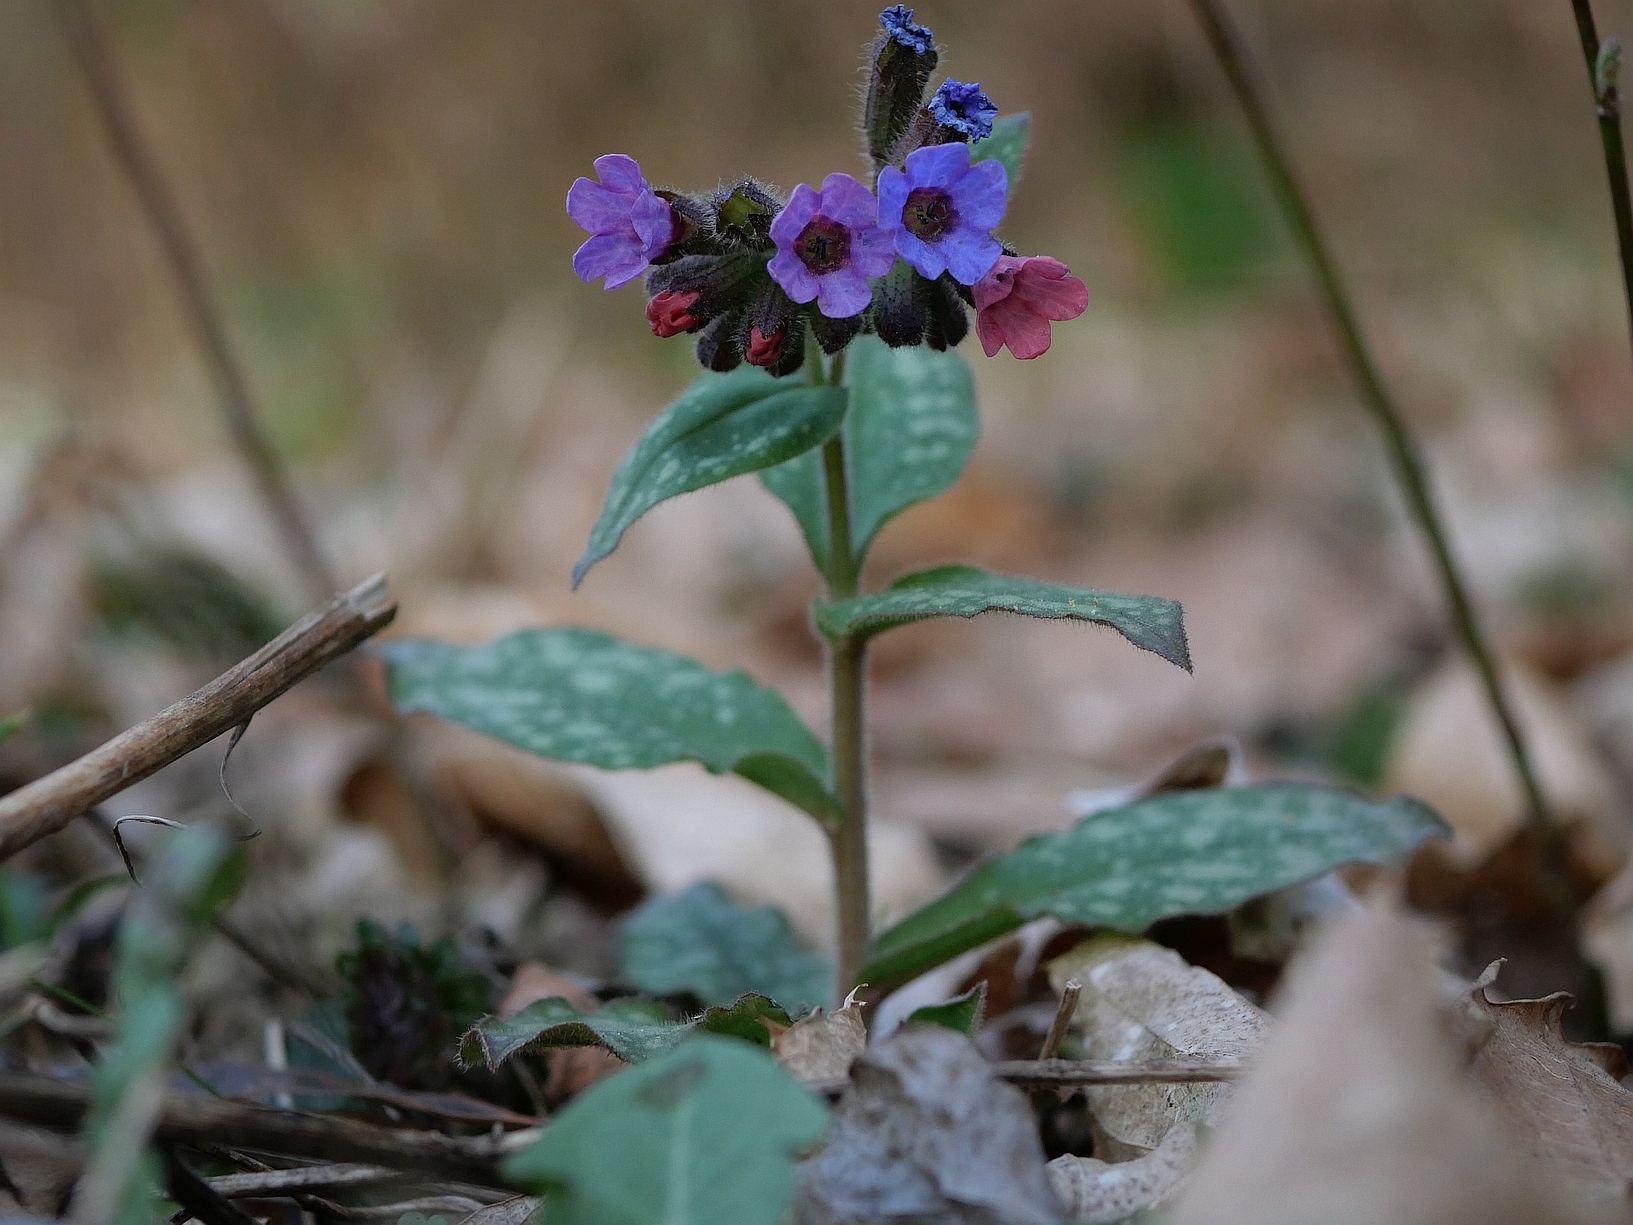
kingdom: Plantae
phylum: Tracheophyta
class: Magnoliopsida
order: Boraginales
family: Boraginaceae
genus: Pulmonaria
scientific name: Pulmonaria officinalis
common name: Lungwort
